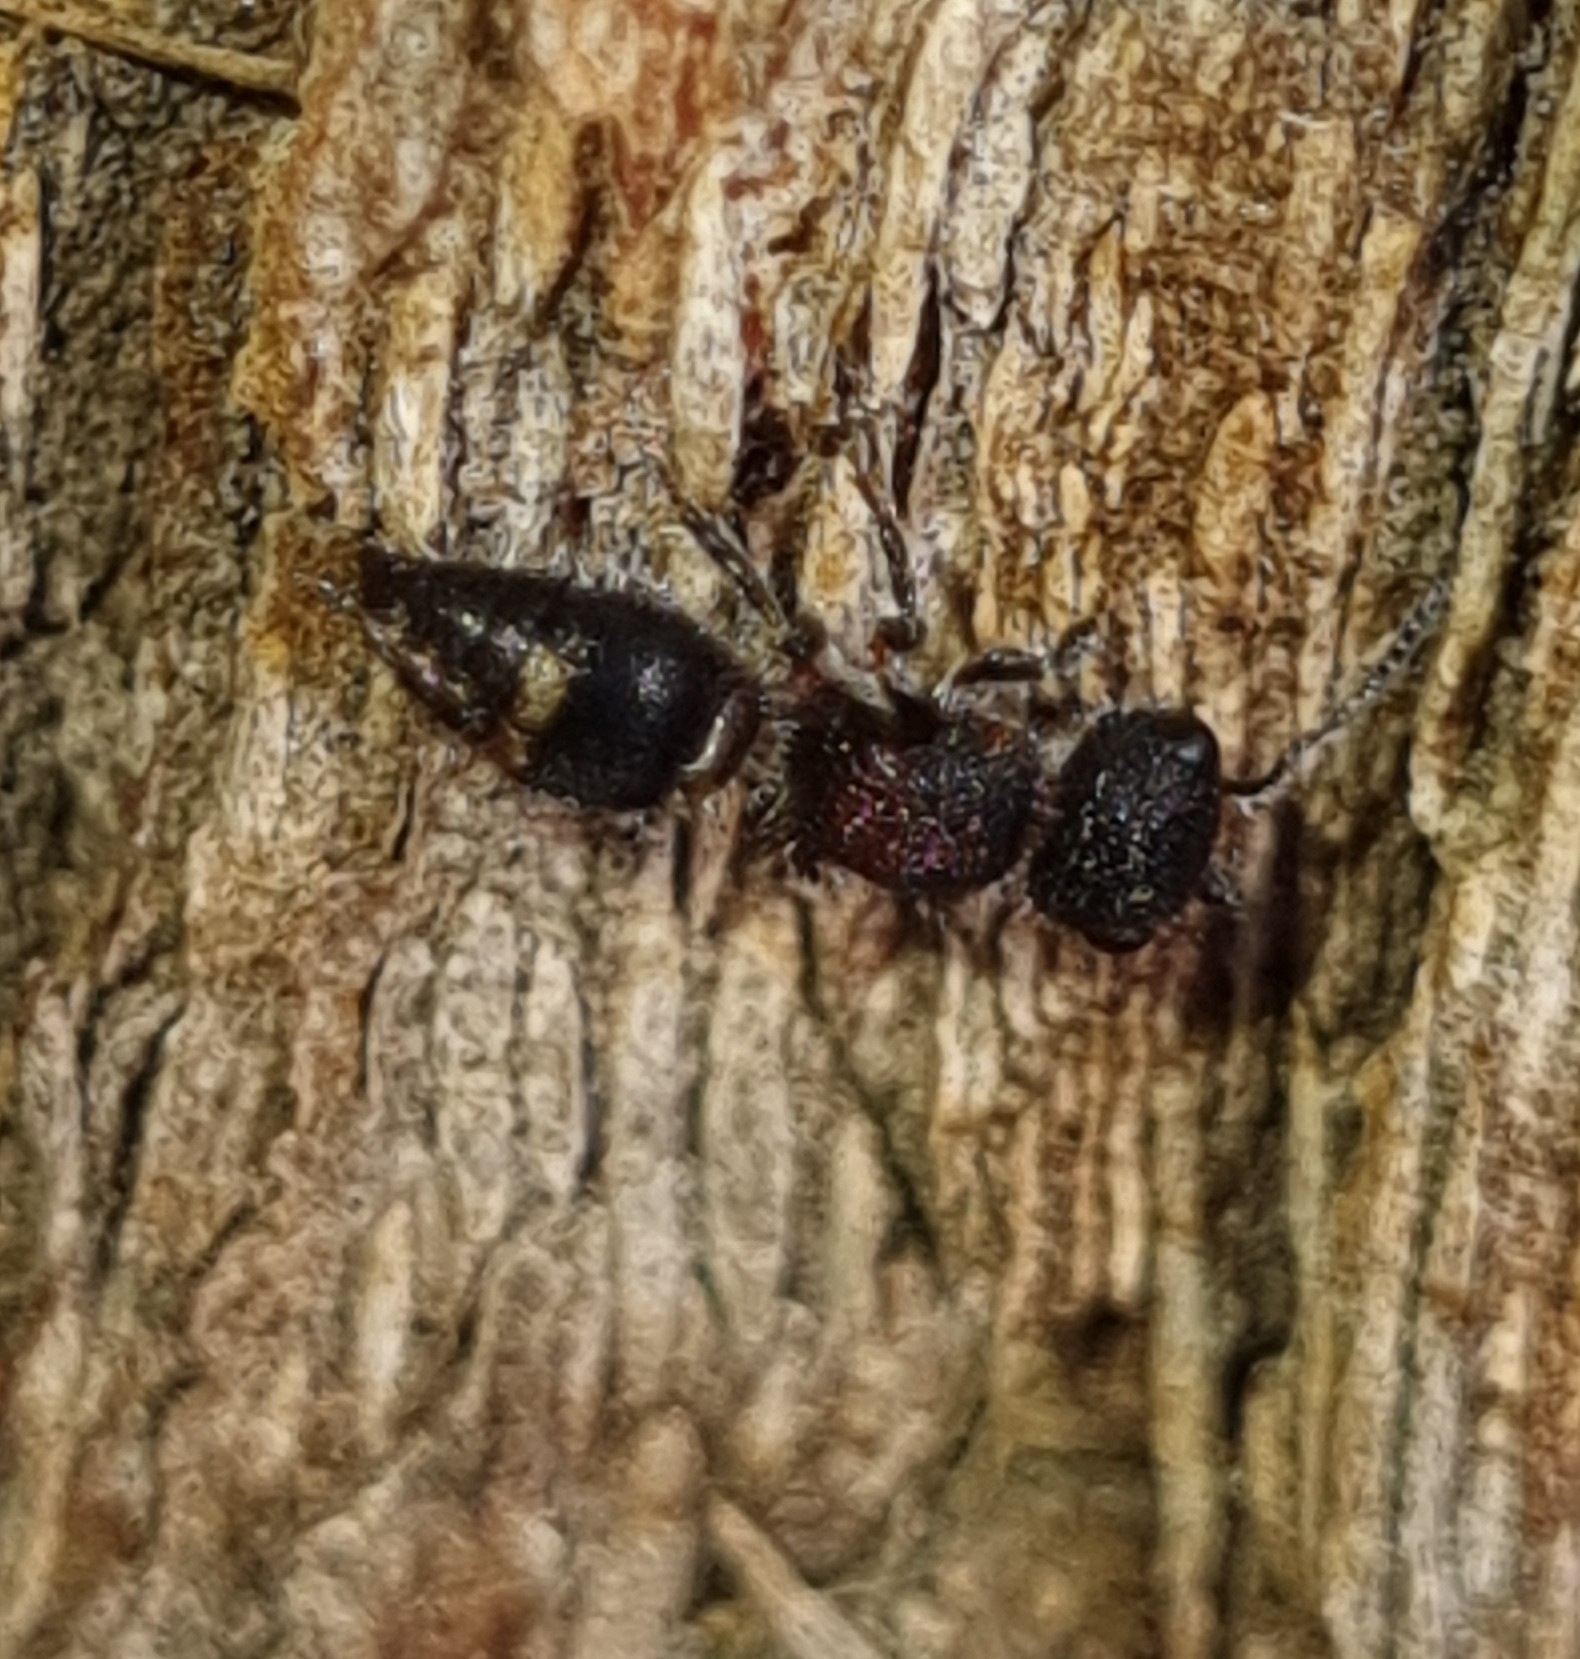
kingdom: Animalia
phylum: Arthropoda
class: Insecta
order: Hymenoptera
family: Mutillidae
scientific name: Mutillidae
